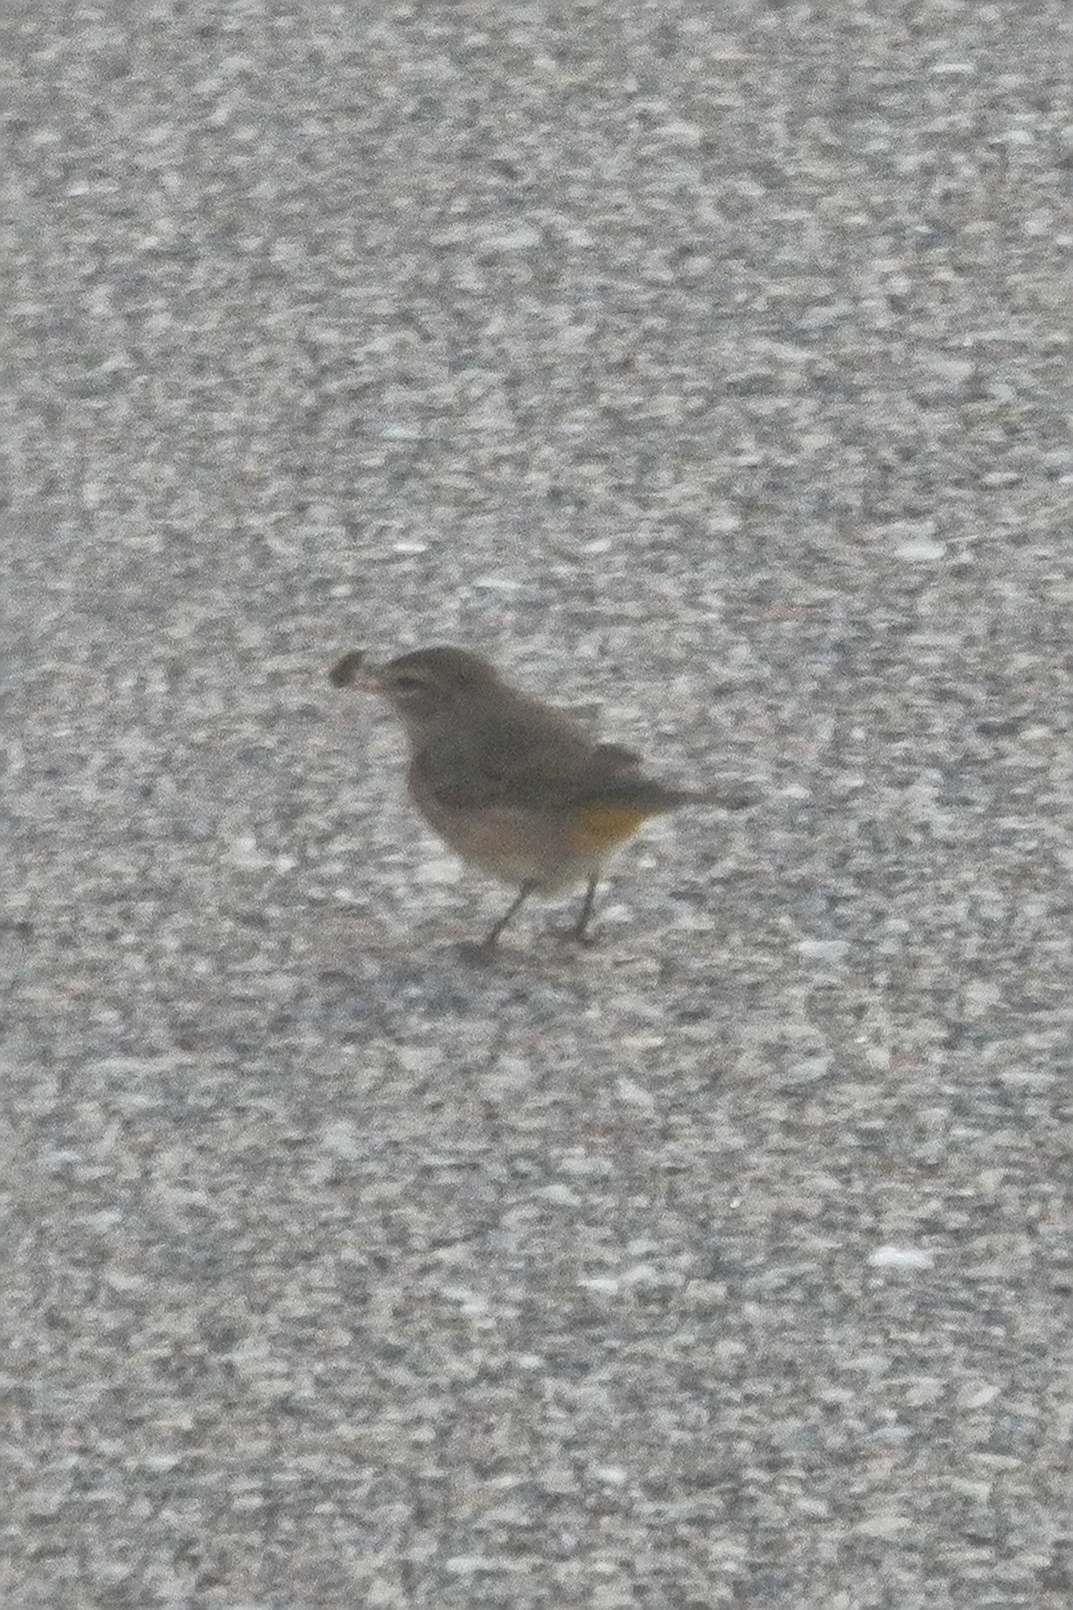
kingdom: Animalia
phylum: Chordata
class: Aves
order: Passeriformes
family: Parulidae
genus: Setophaga
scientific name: Setophaga palmarum
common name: Palm warbler
